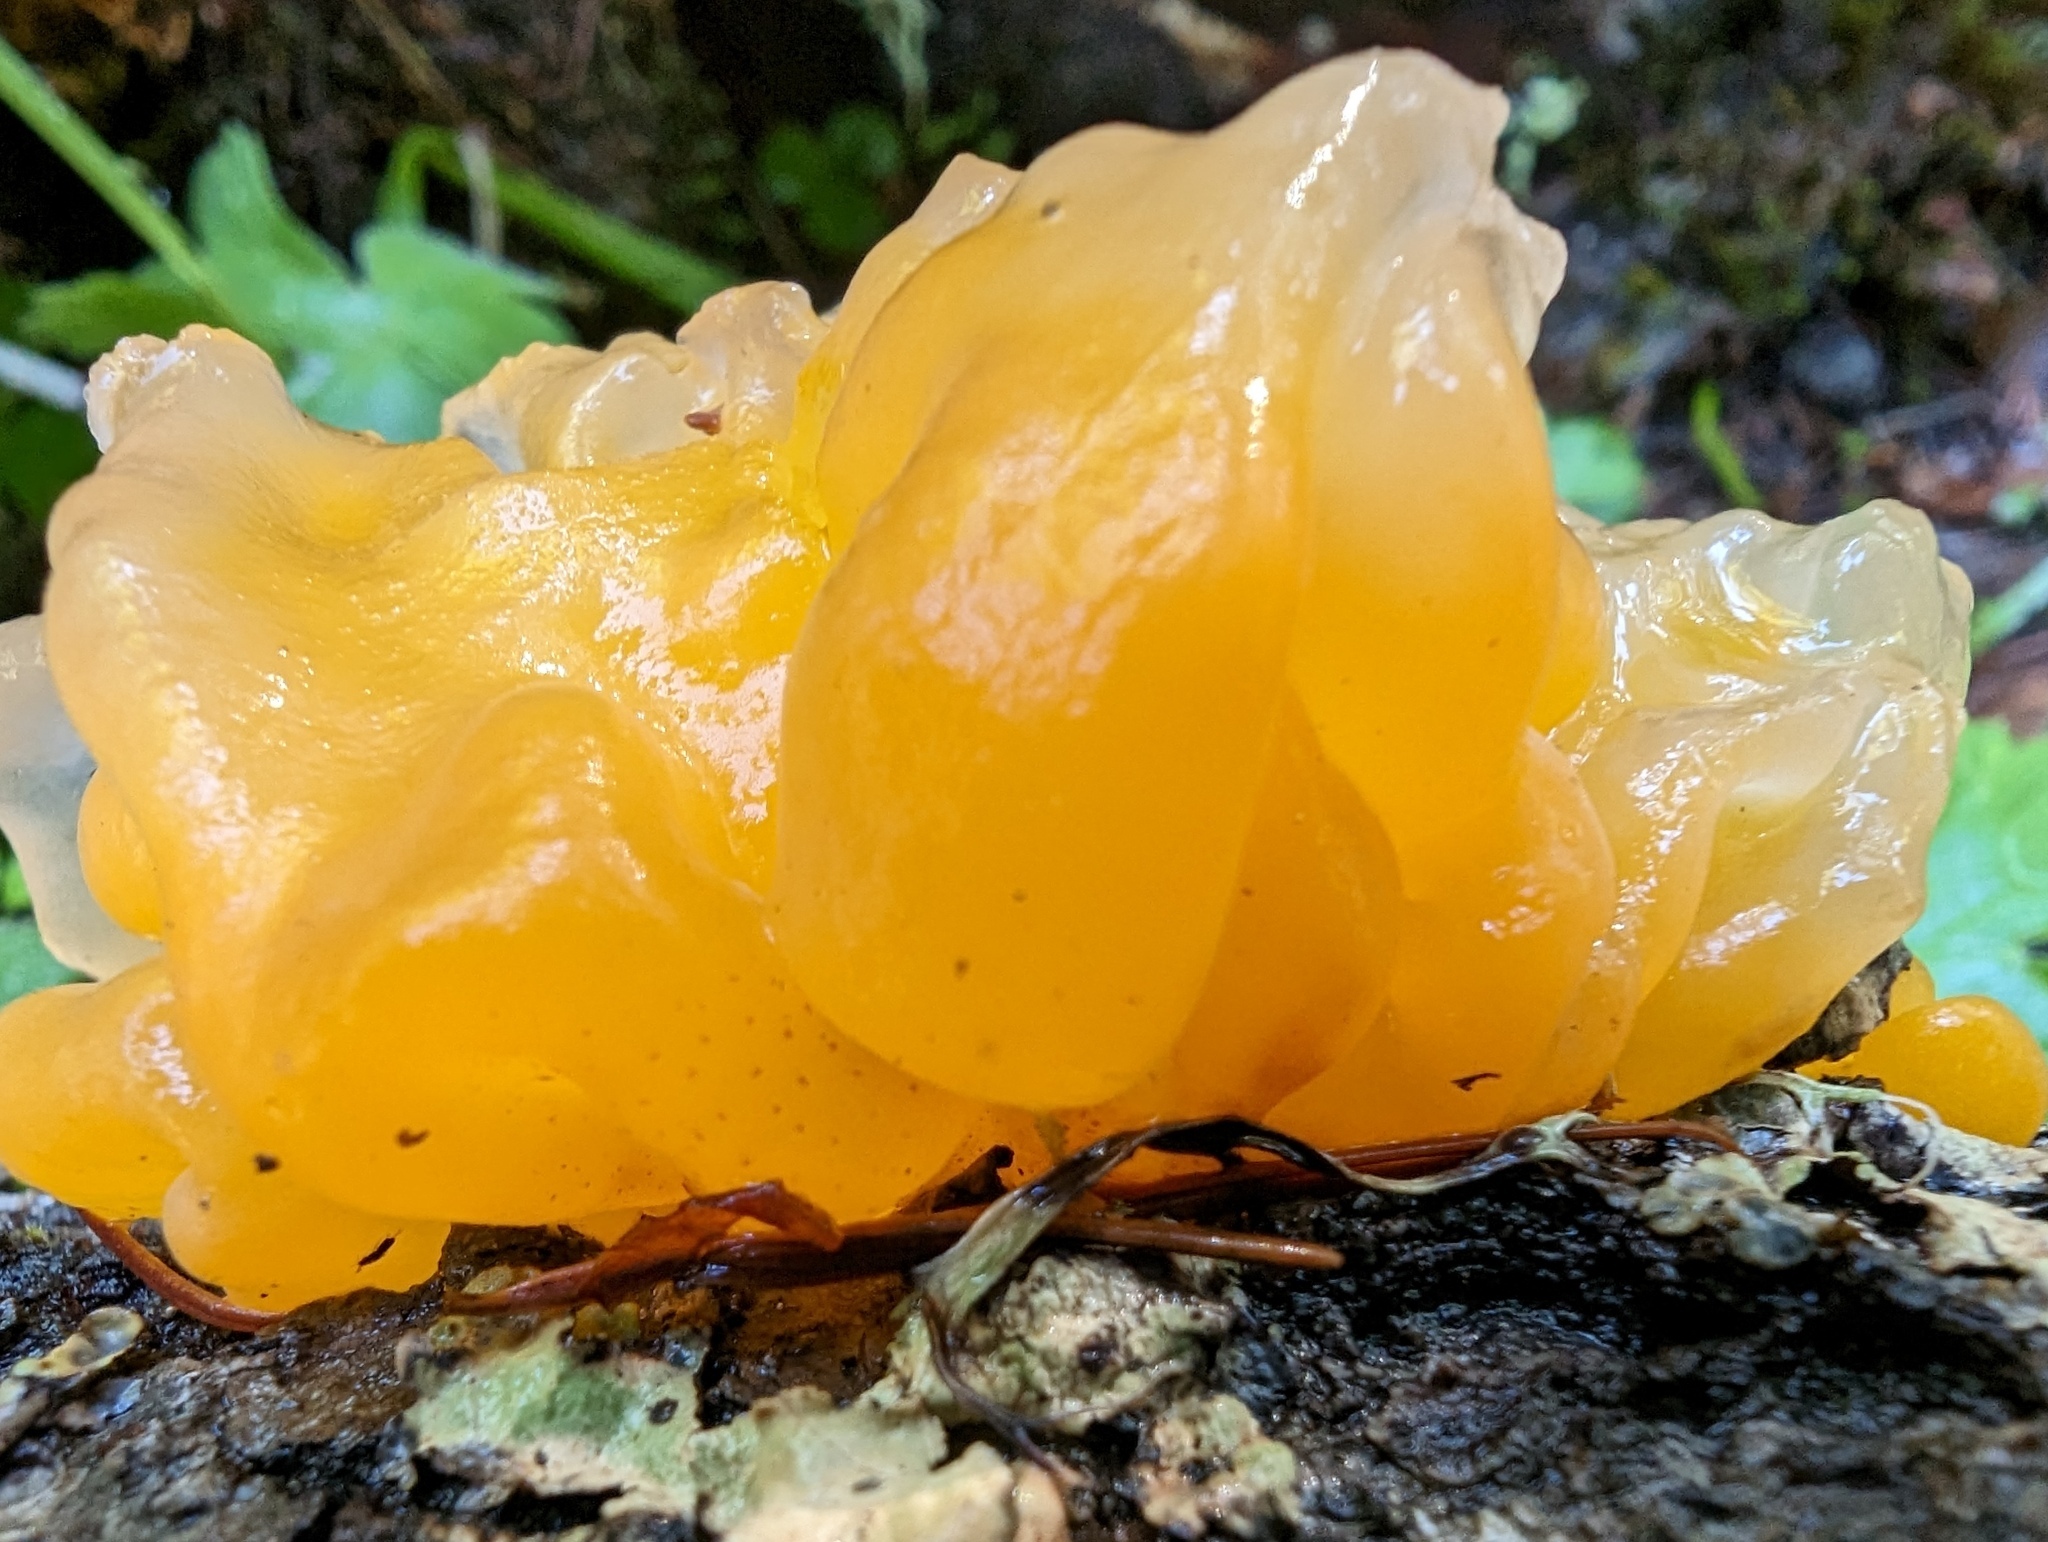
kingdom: Fungi
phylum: Basidiomycota
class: Tremellomycetes
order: Tremellales
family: Naemateliaceae
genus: Naematelia
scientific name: Naematelia aurantia
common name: Golden ear
